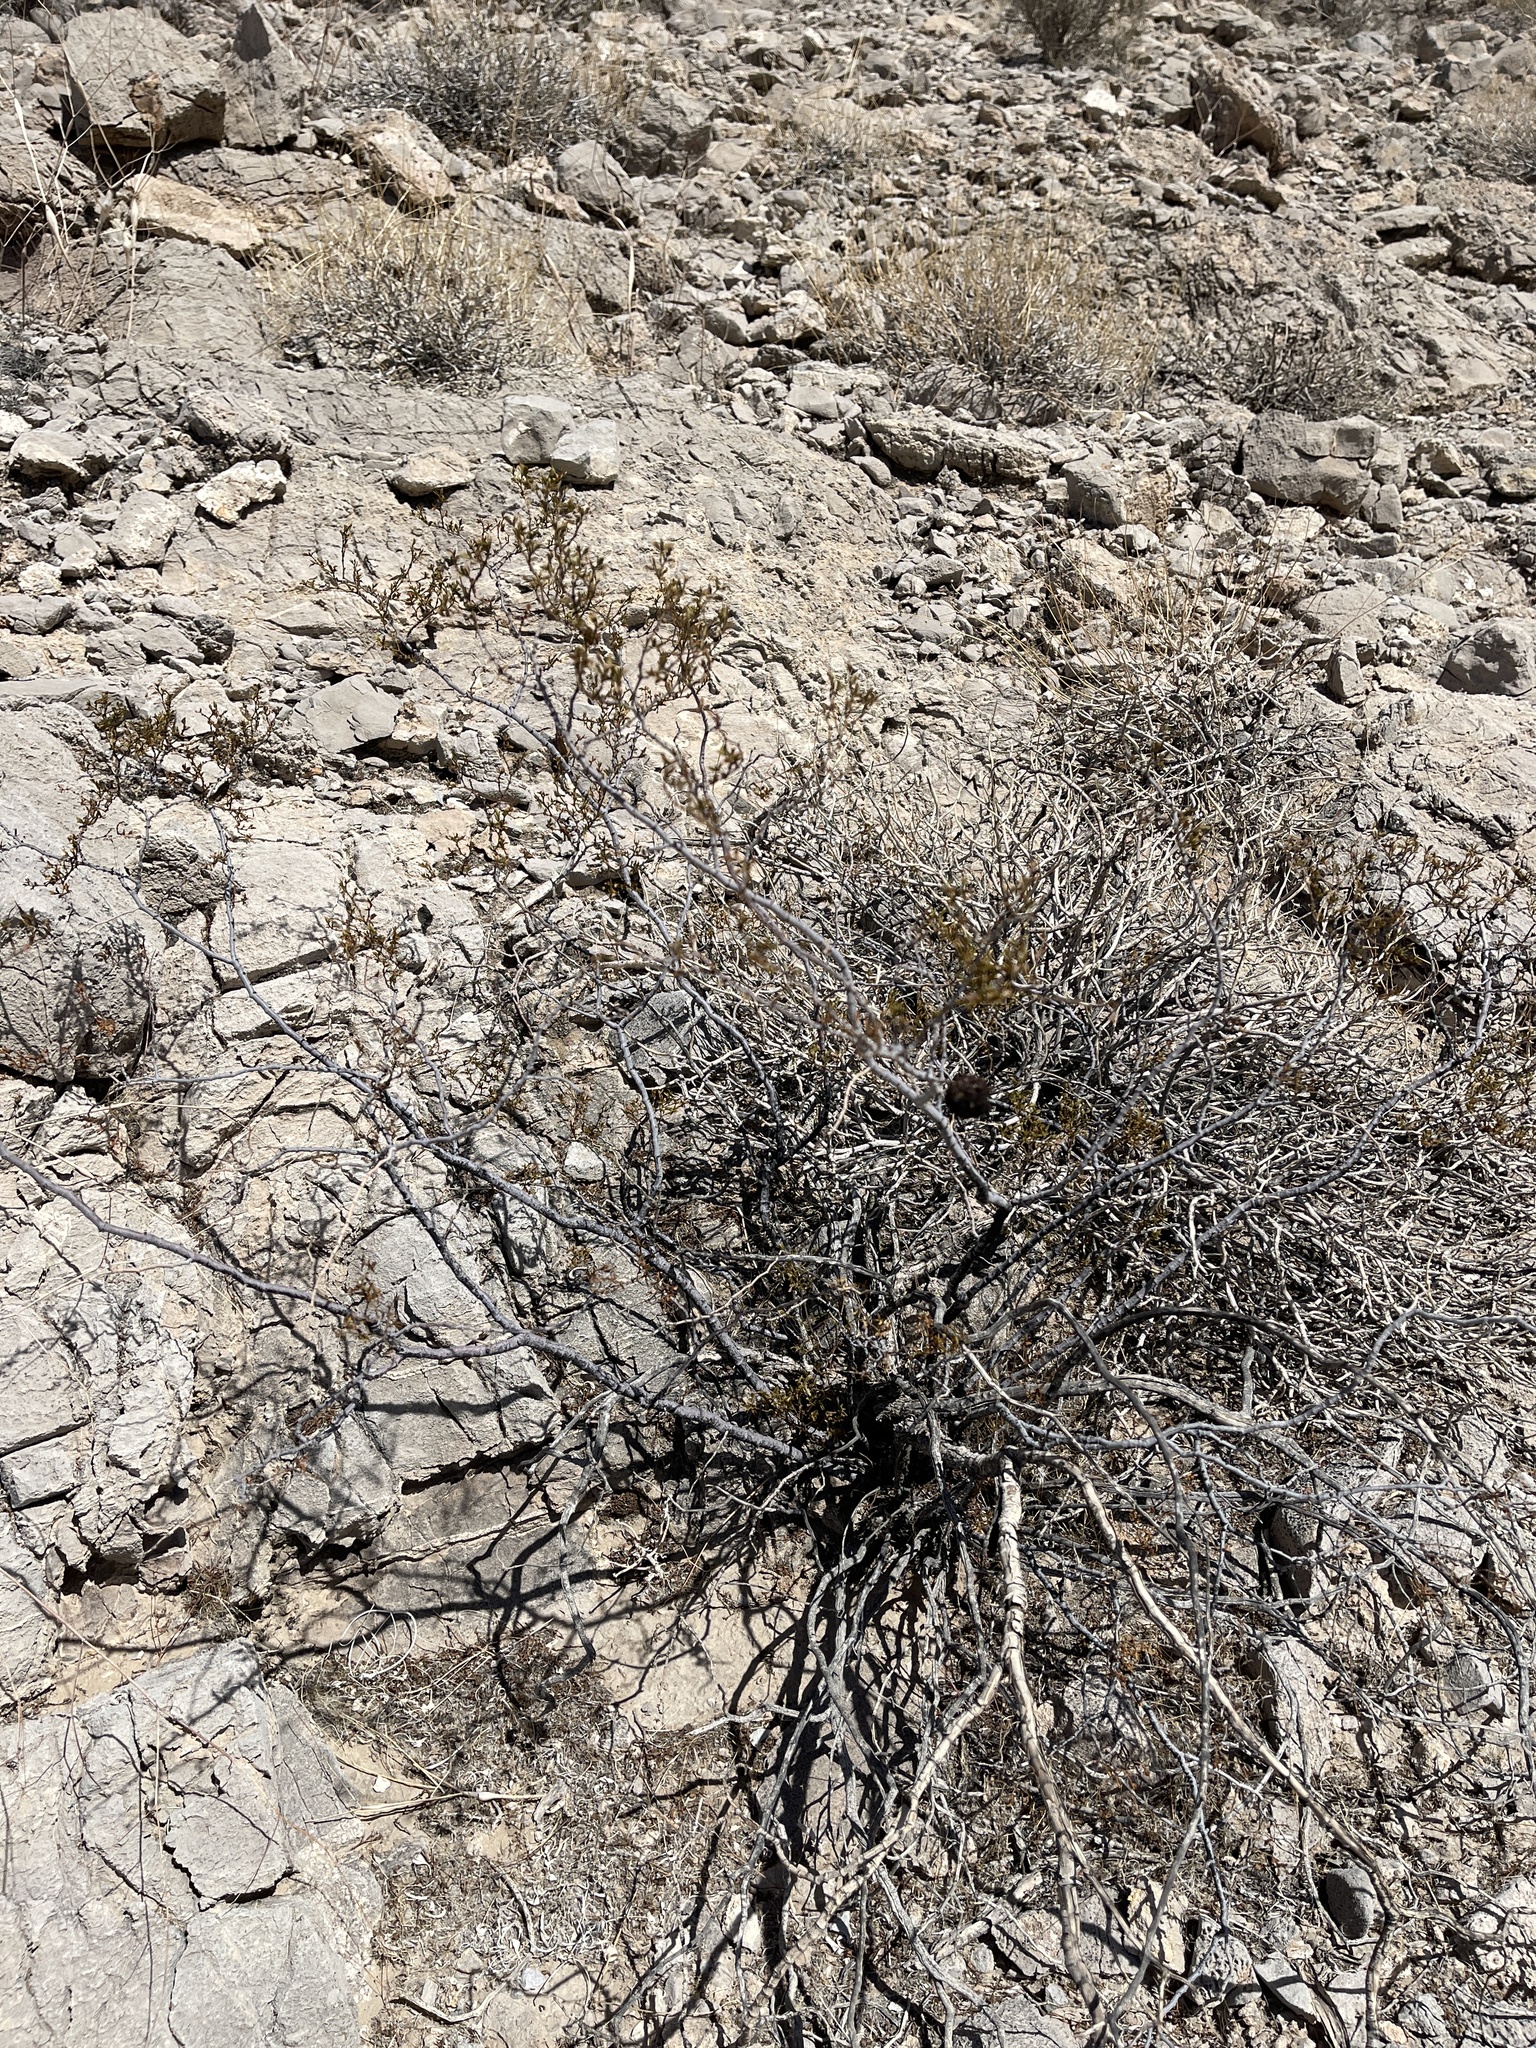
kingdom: Plantae
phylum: Tracheophyta
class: Magnoliopsida
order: Zygophyllales
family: Zygophyllaceae
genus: Larrea
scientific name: Larrea tridentata
